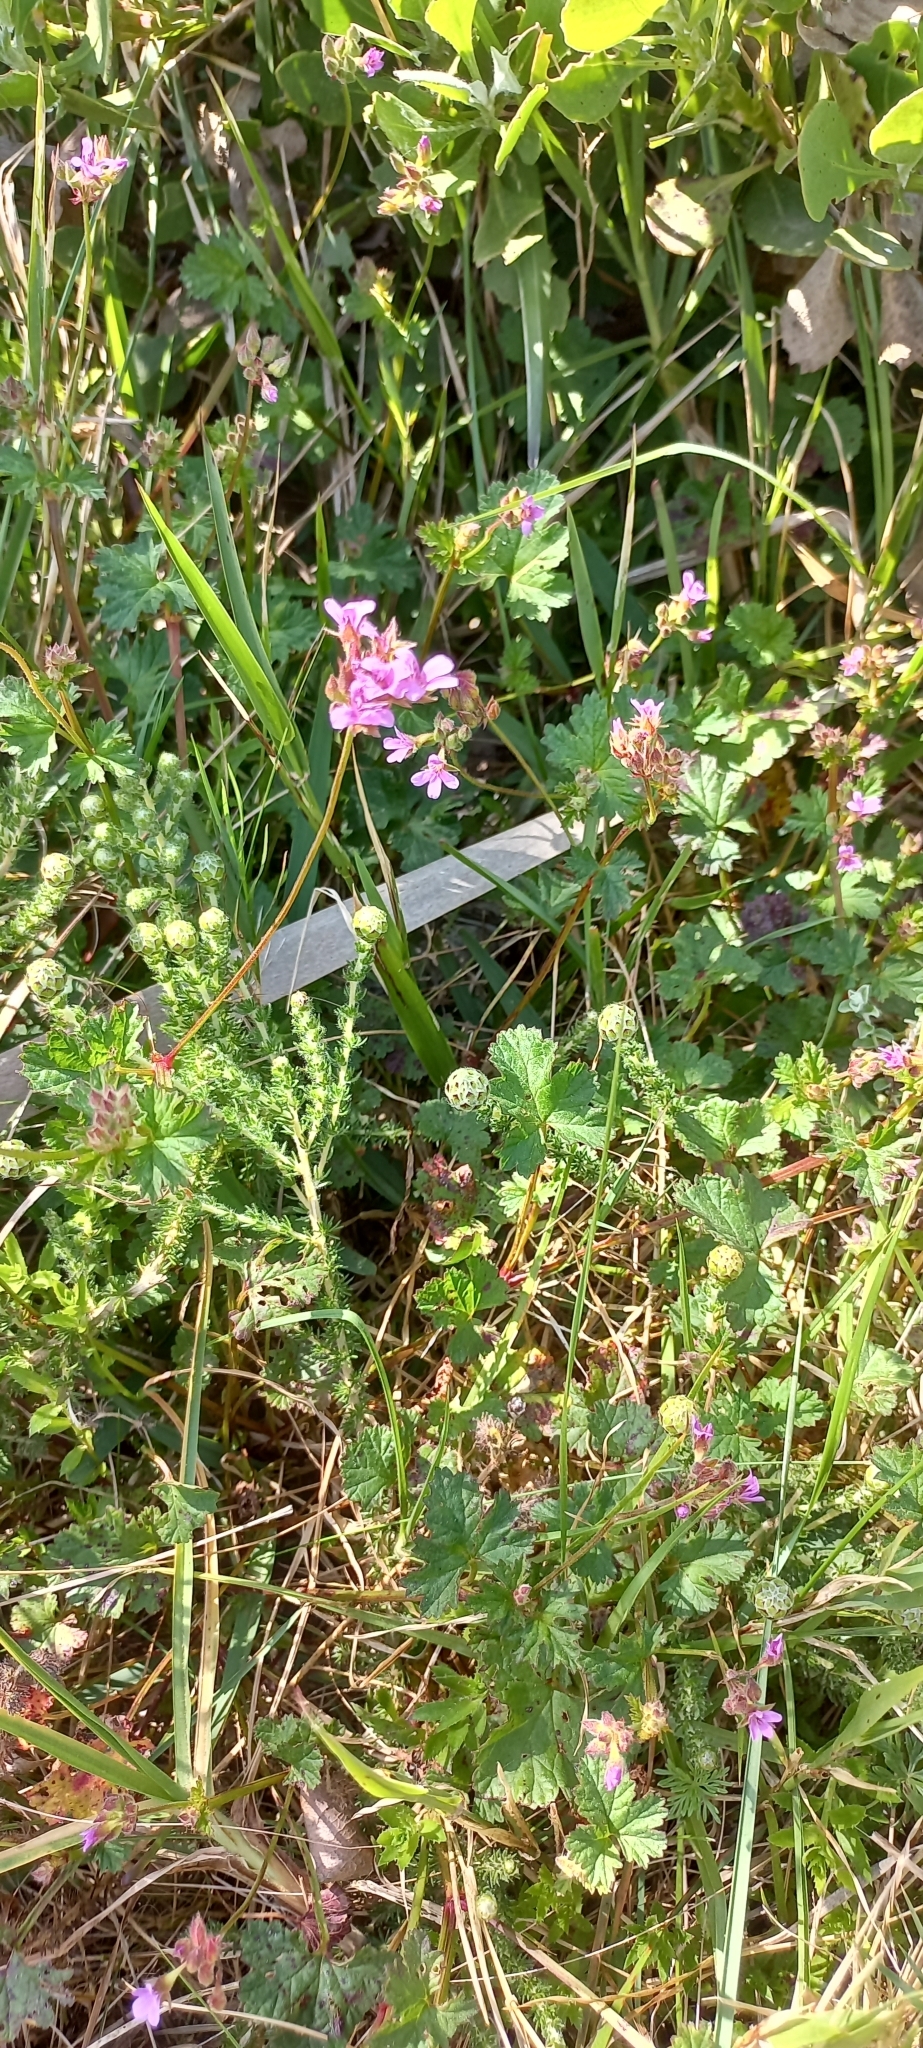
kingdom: Plantae
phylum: Tracheophyta
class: Magnoliopsida
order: Geraniales
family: Geraniaceae
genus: Pelargonium
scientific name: Pelargonium grossularioides
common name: Gooseberry geranium
